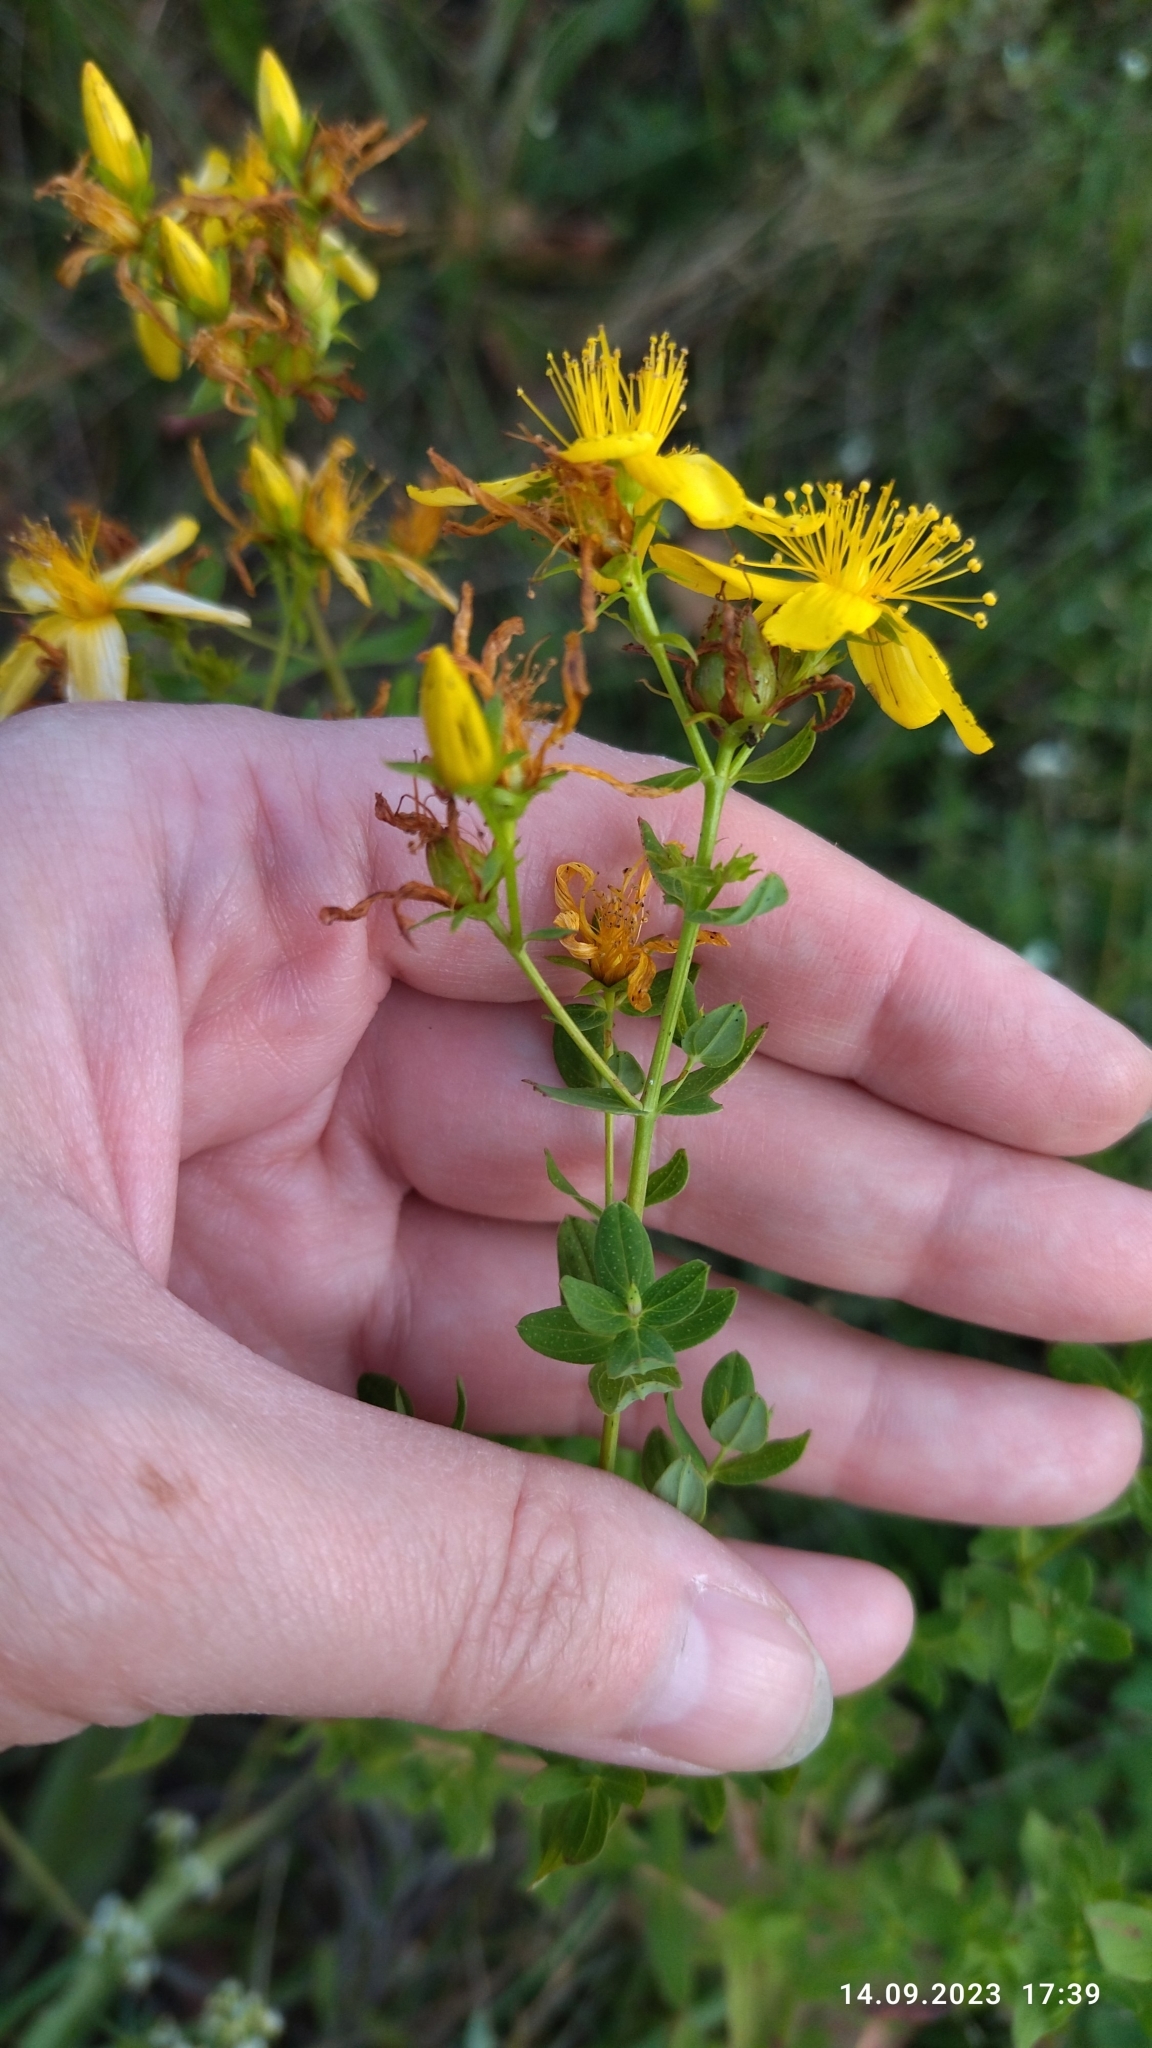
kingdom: Plantae
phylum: Tracheophyta
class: Magnoliopsida
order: Malpighiales
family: Hypericaceae
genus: Hypericum
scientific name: Hypericum perforatum
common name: Common st. johnswort
